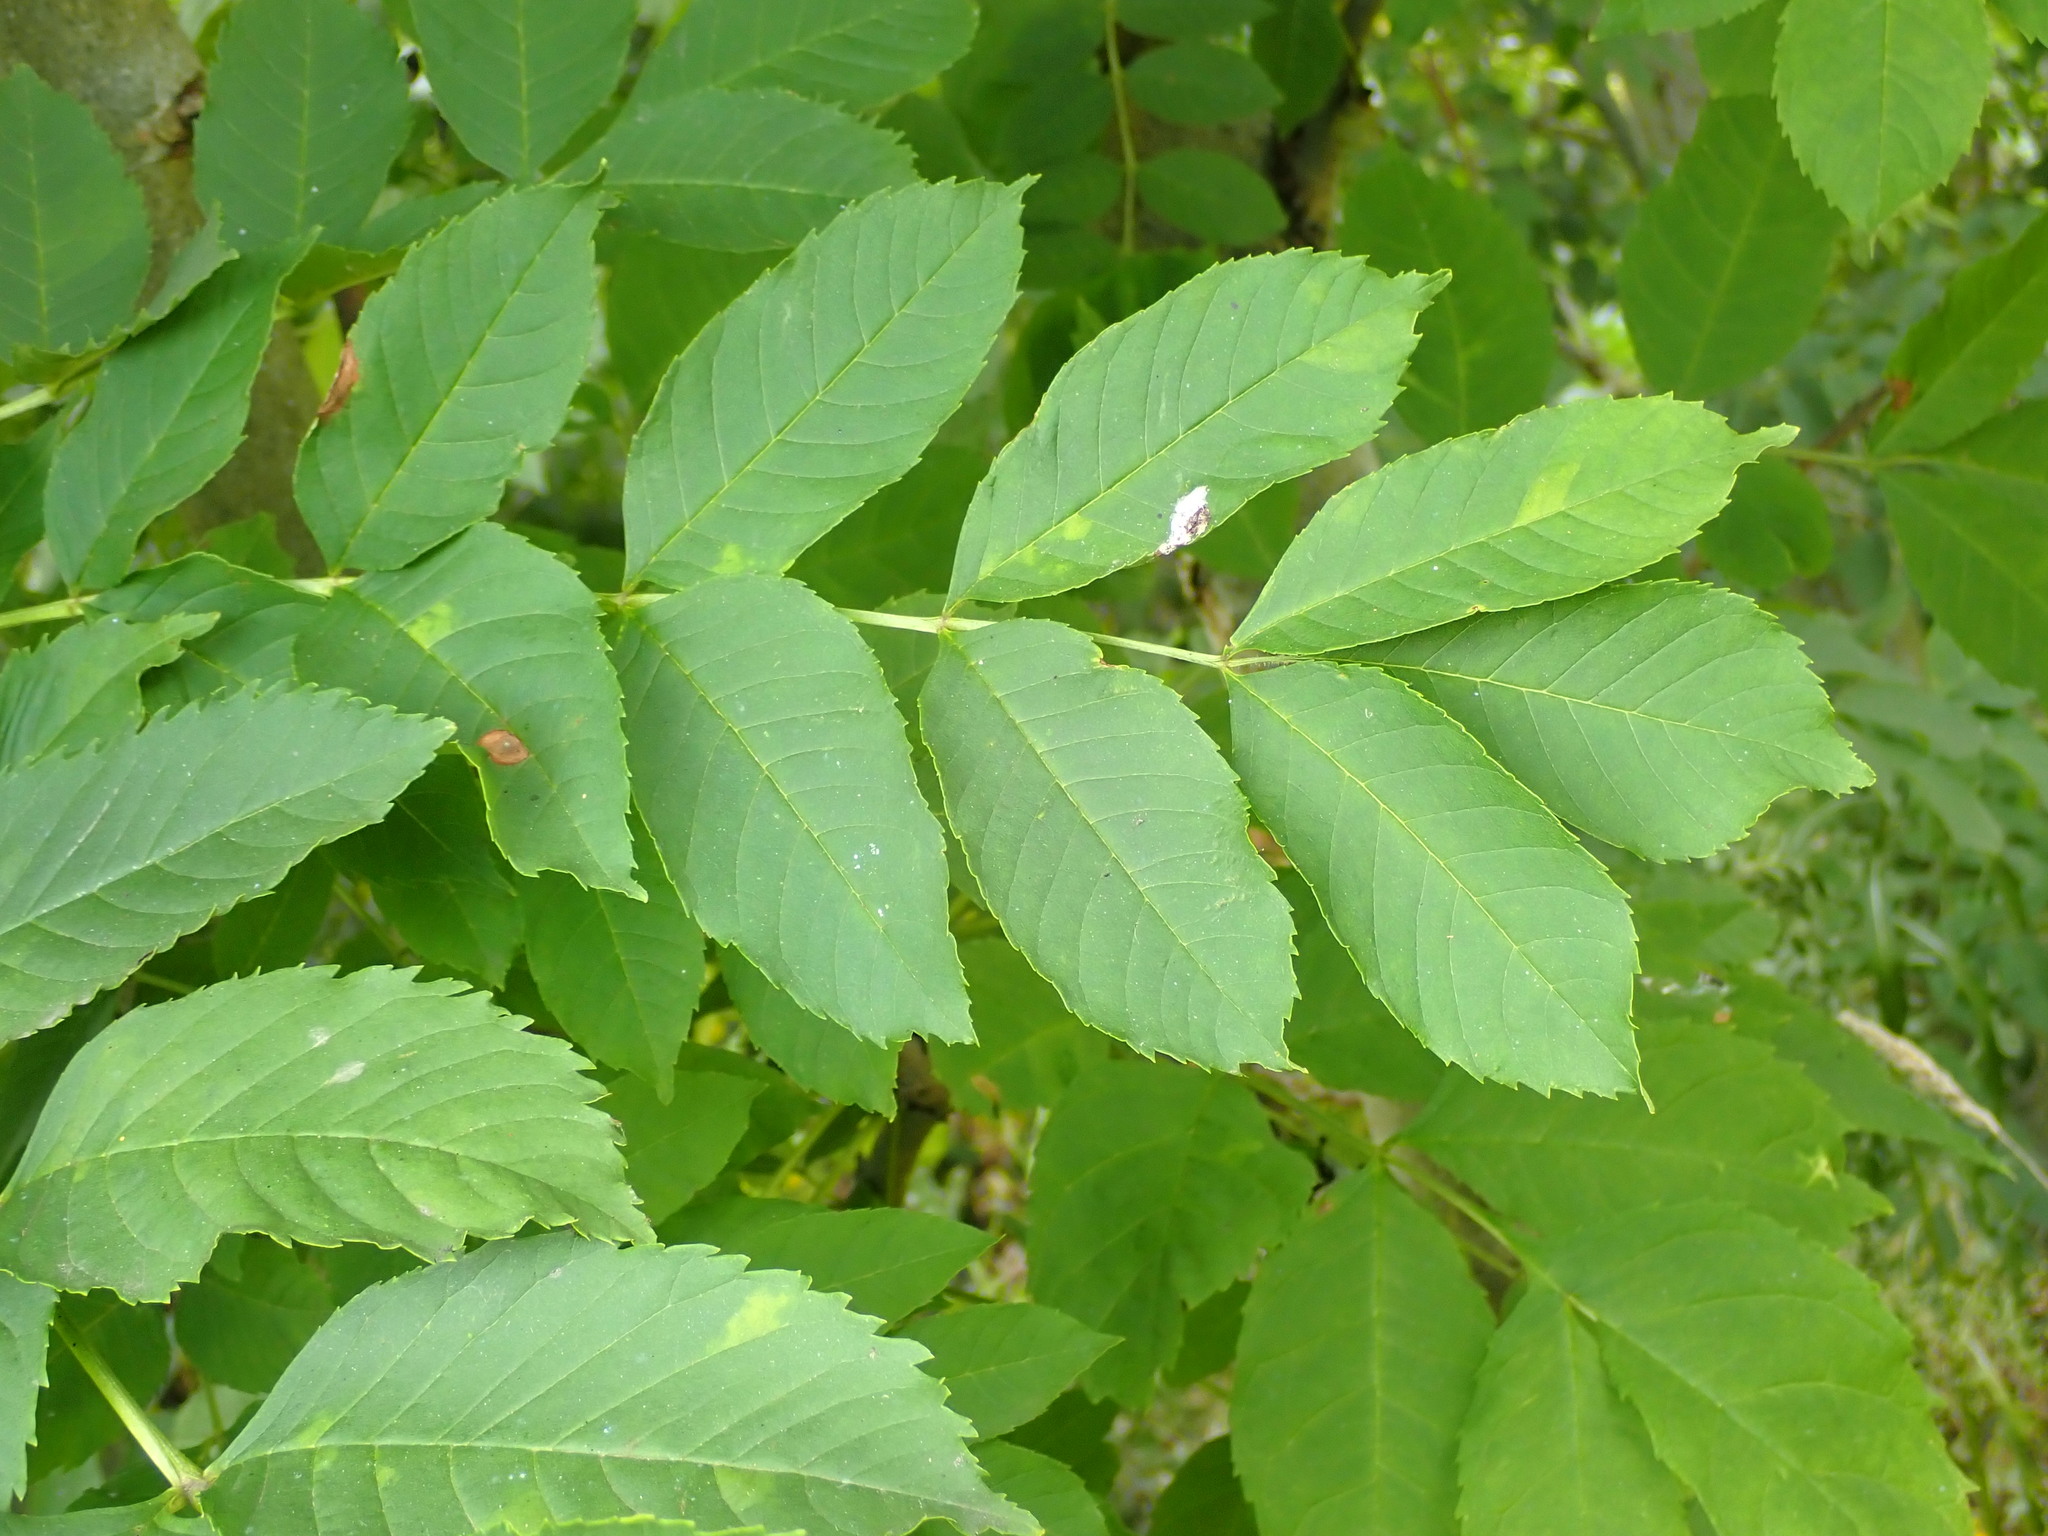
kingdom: Plantae
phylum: Tracheophyta
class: Magnoliopsida
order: Lamiales
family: Oleaceae
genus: Fraxinus
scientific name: Fraxinus excelsior
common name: European ash
